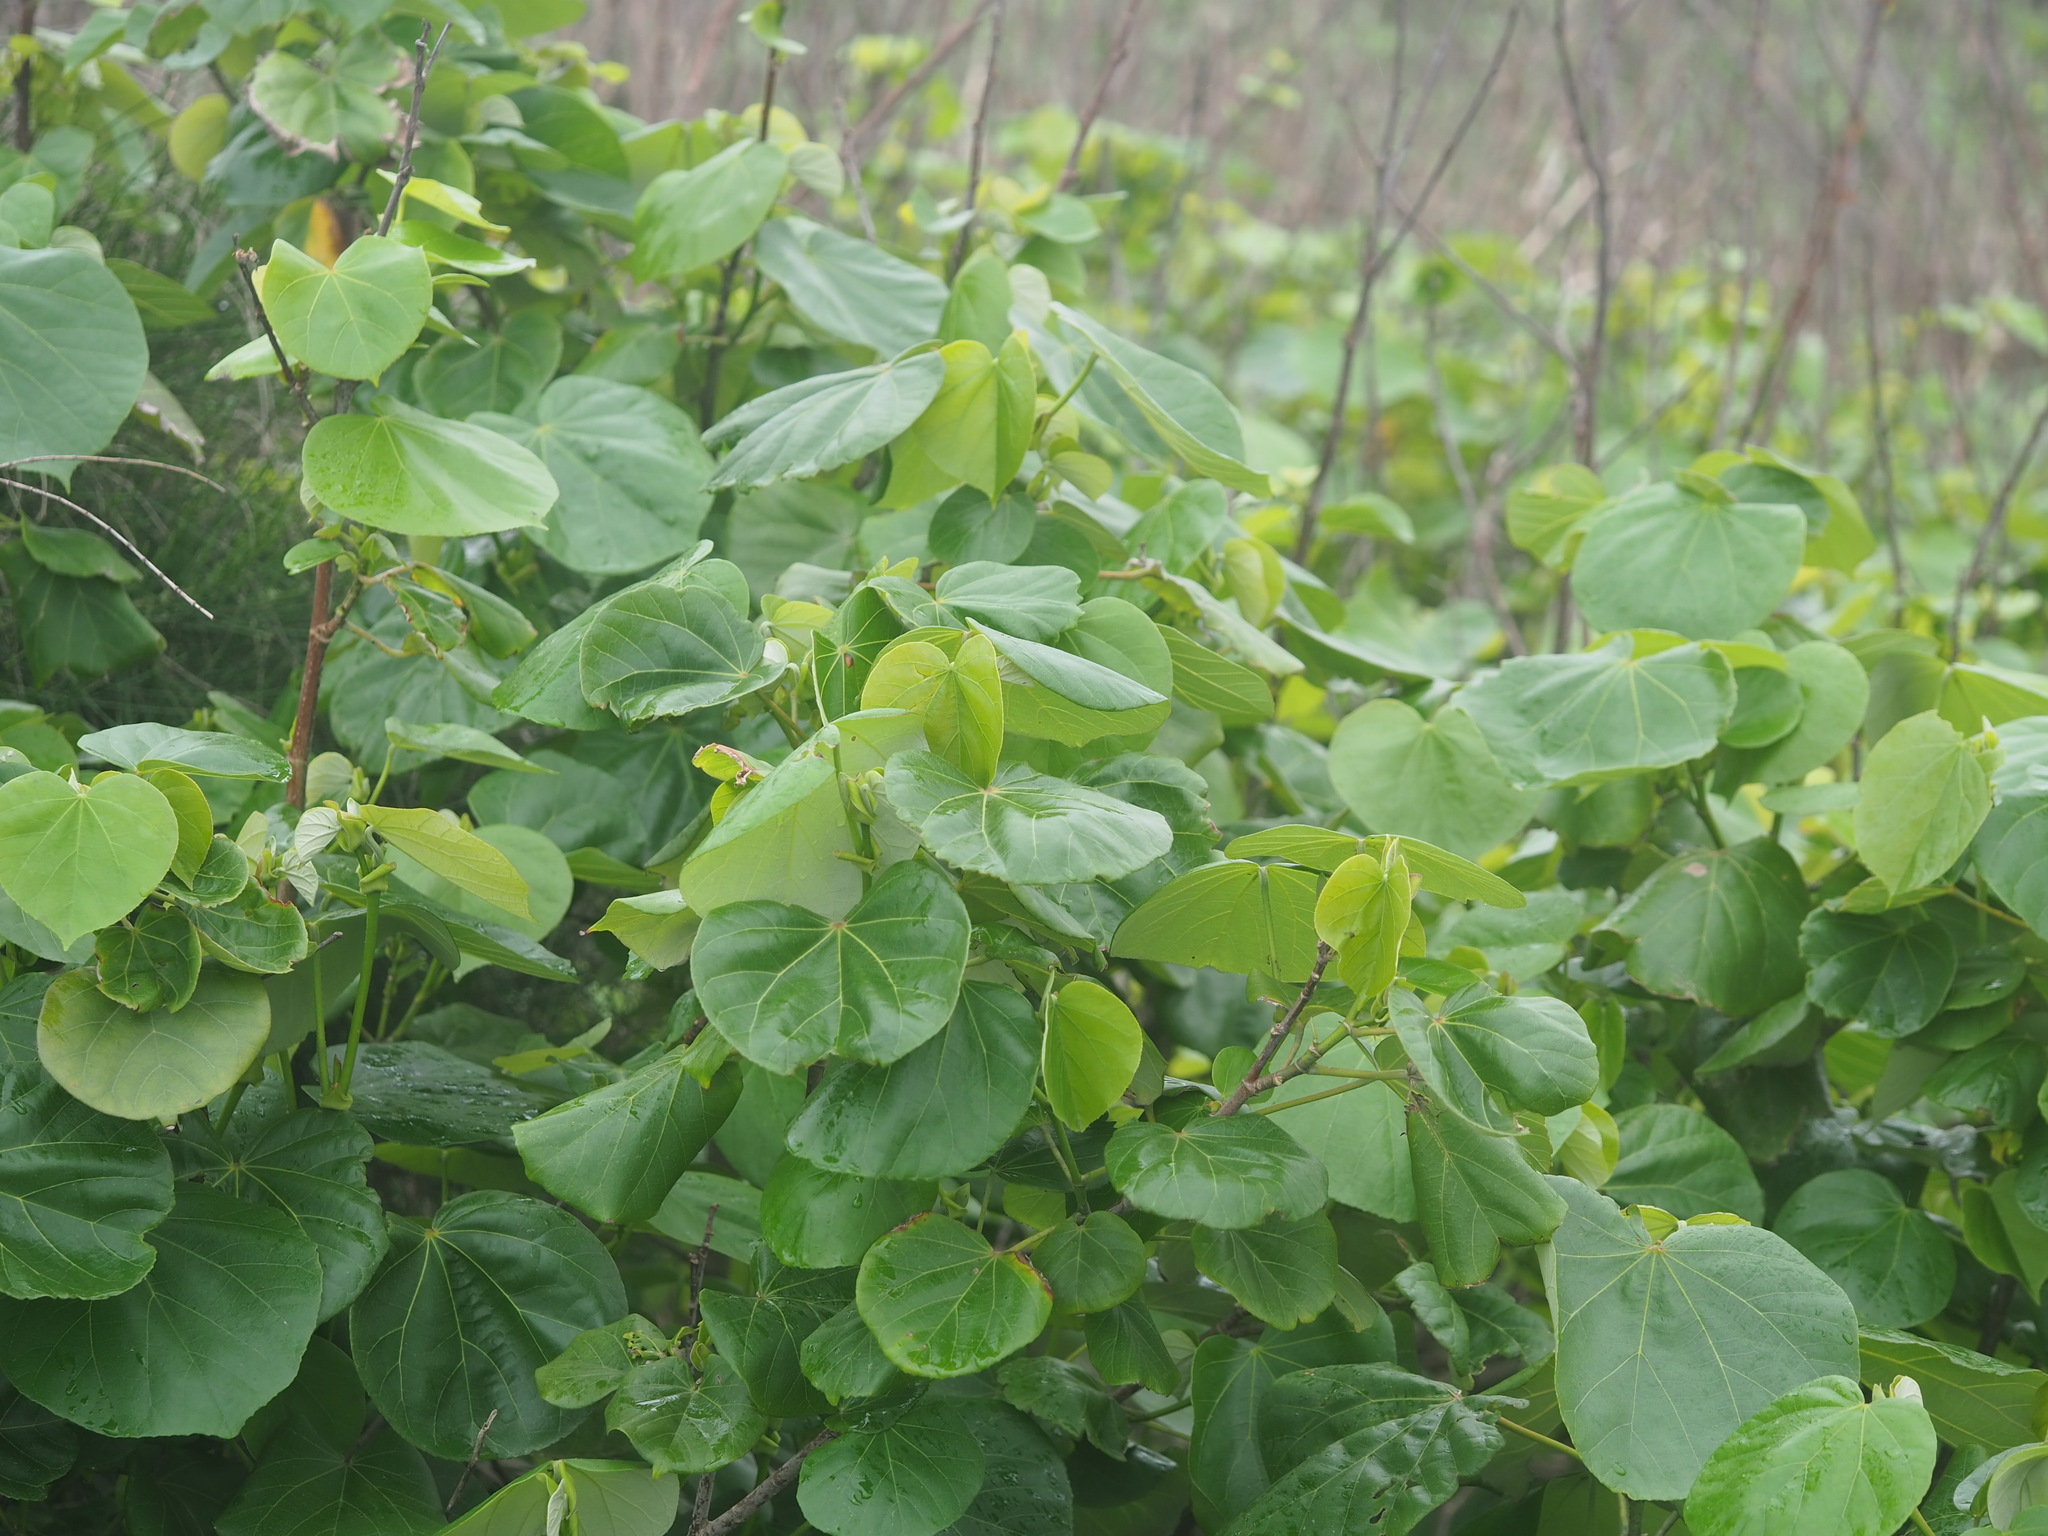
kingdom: Plantae
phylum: Tracheophyta
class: Magnoliopsida
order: Malvales
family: Malvaceae
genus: Talipariti
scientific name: Talipariti tiliaceum
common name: Sea hibiscus
